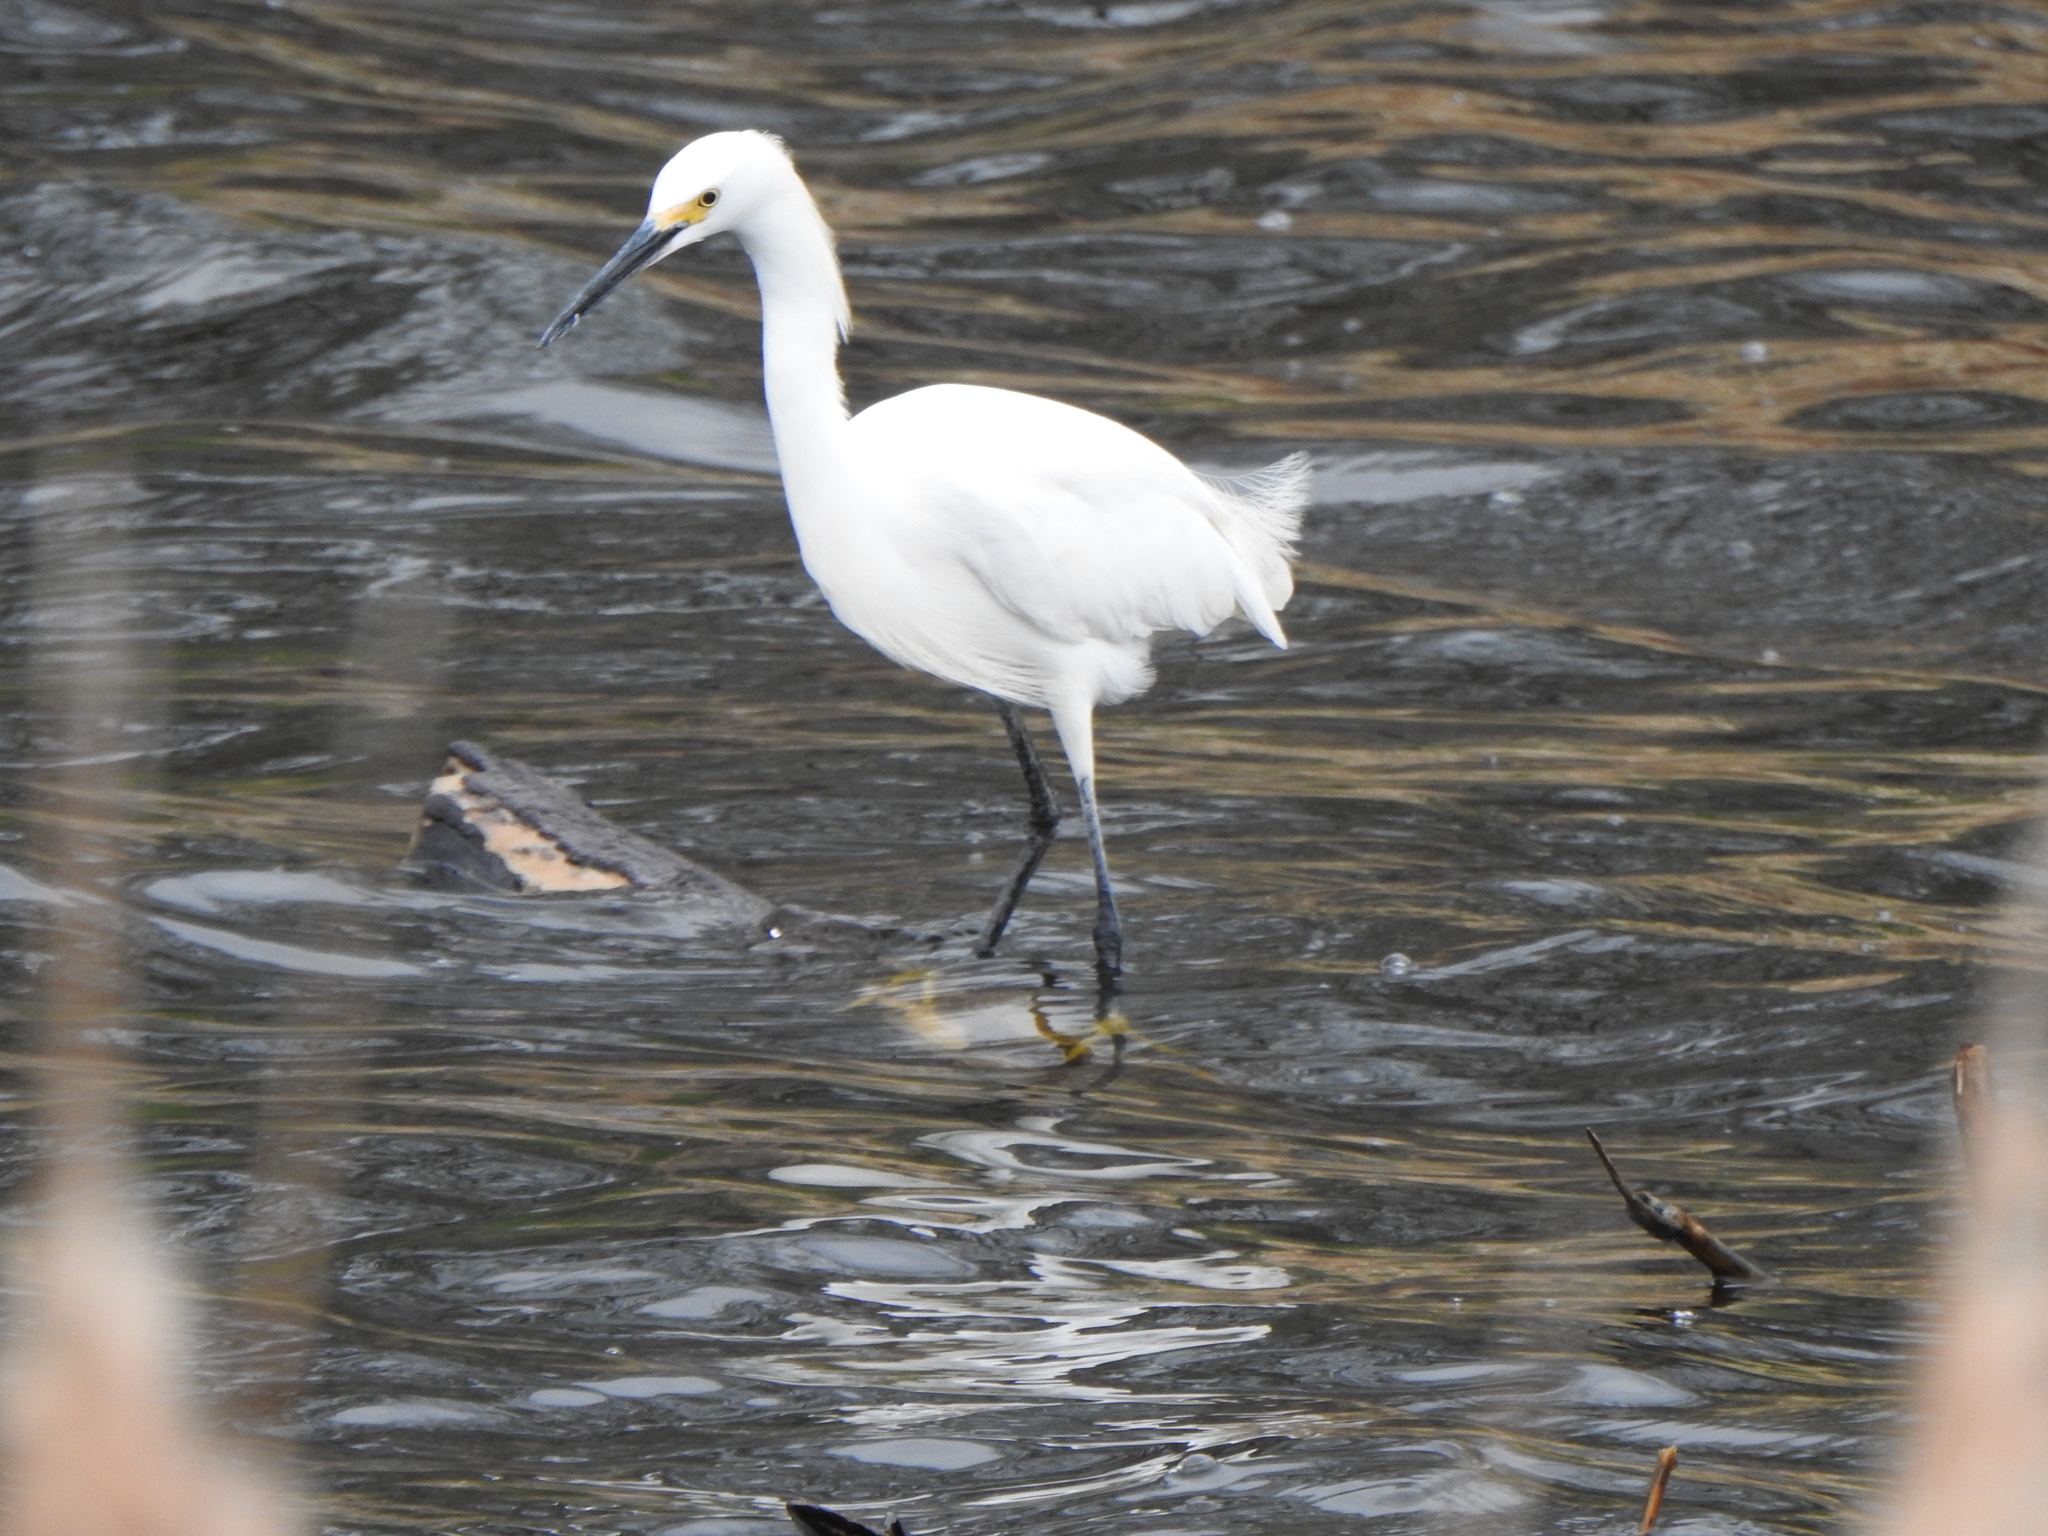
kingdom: Animalia
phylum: Chordata
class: Aves
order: Pelecaniformes
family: Ardeidae
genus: Egretta
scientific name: Egretta thula
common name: Snowy egret
